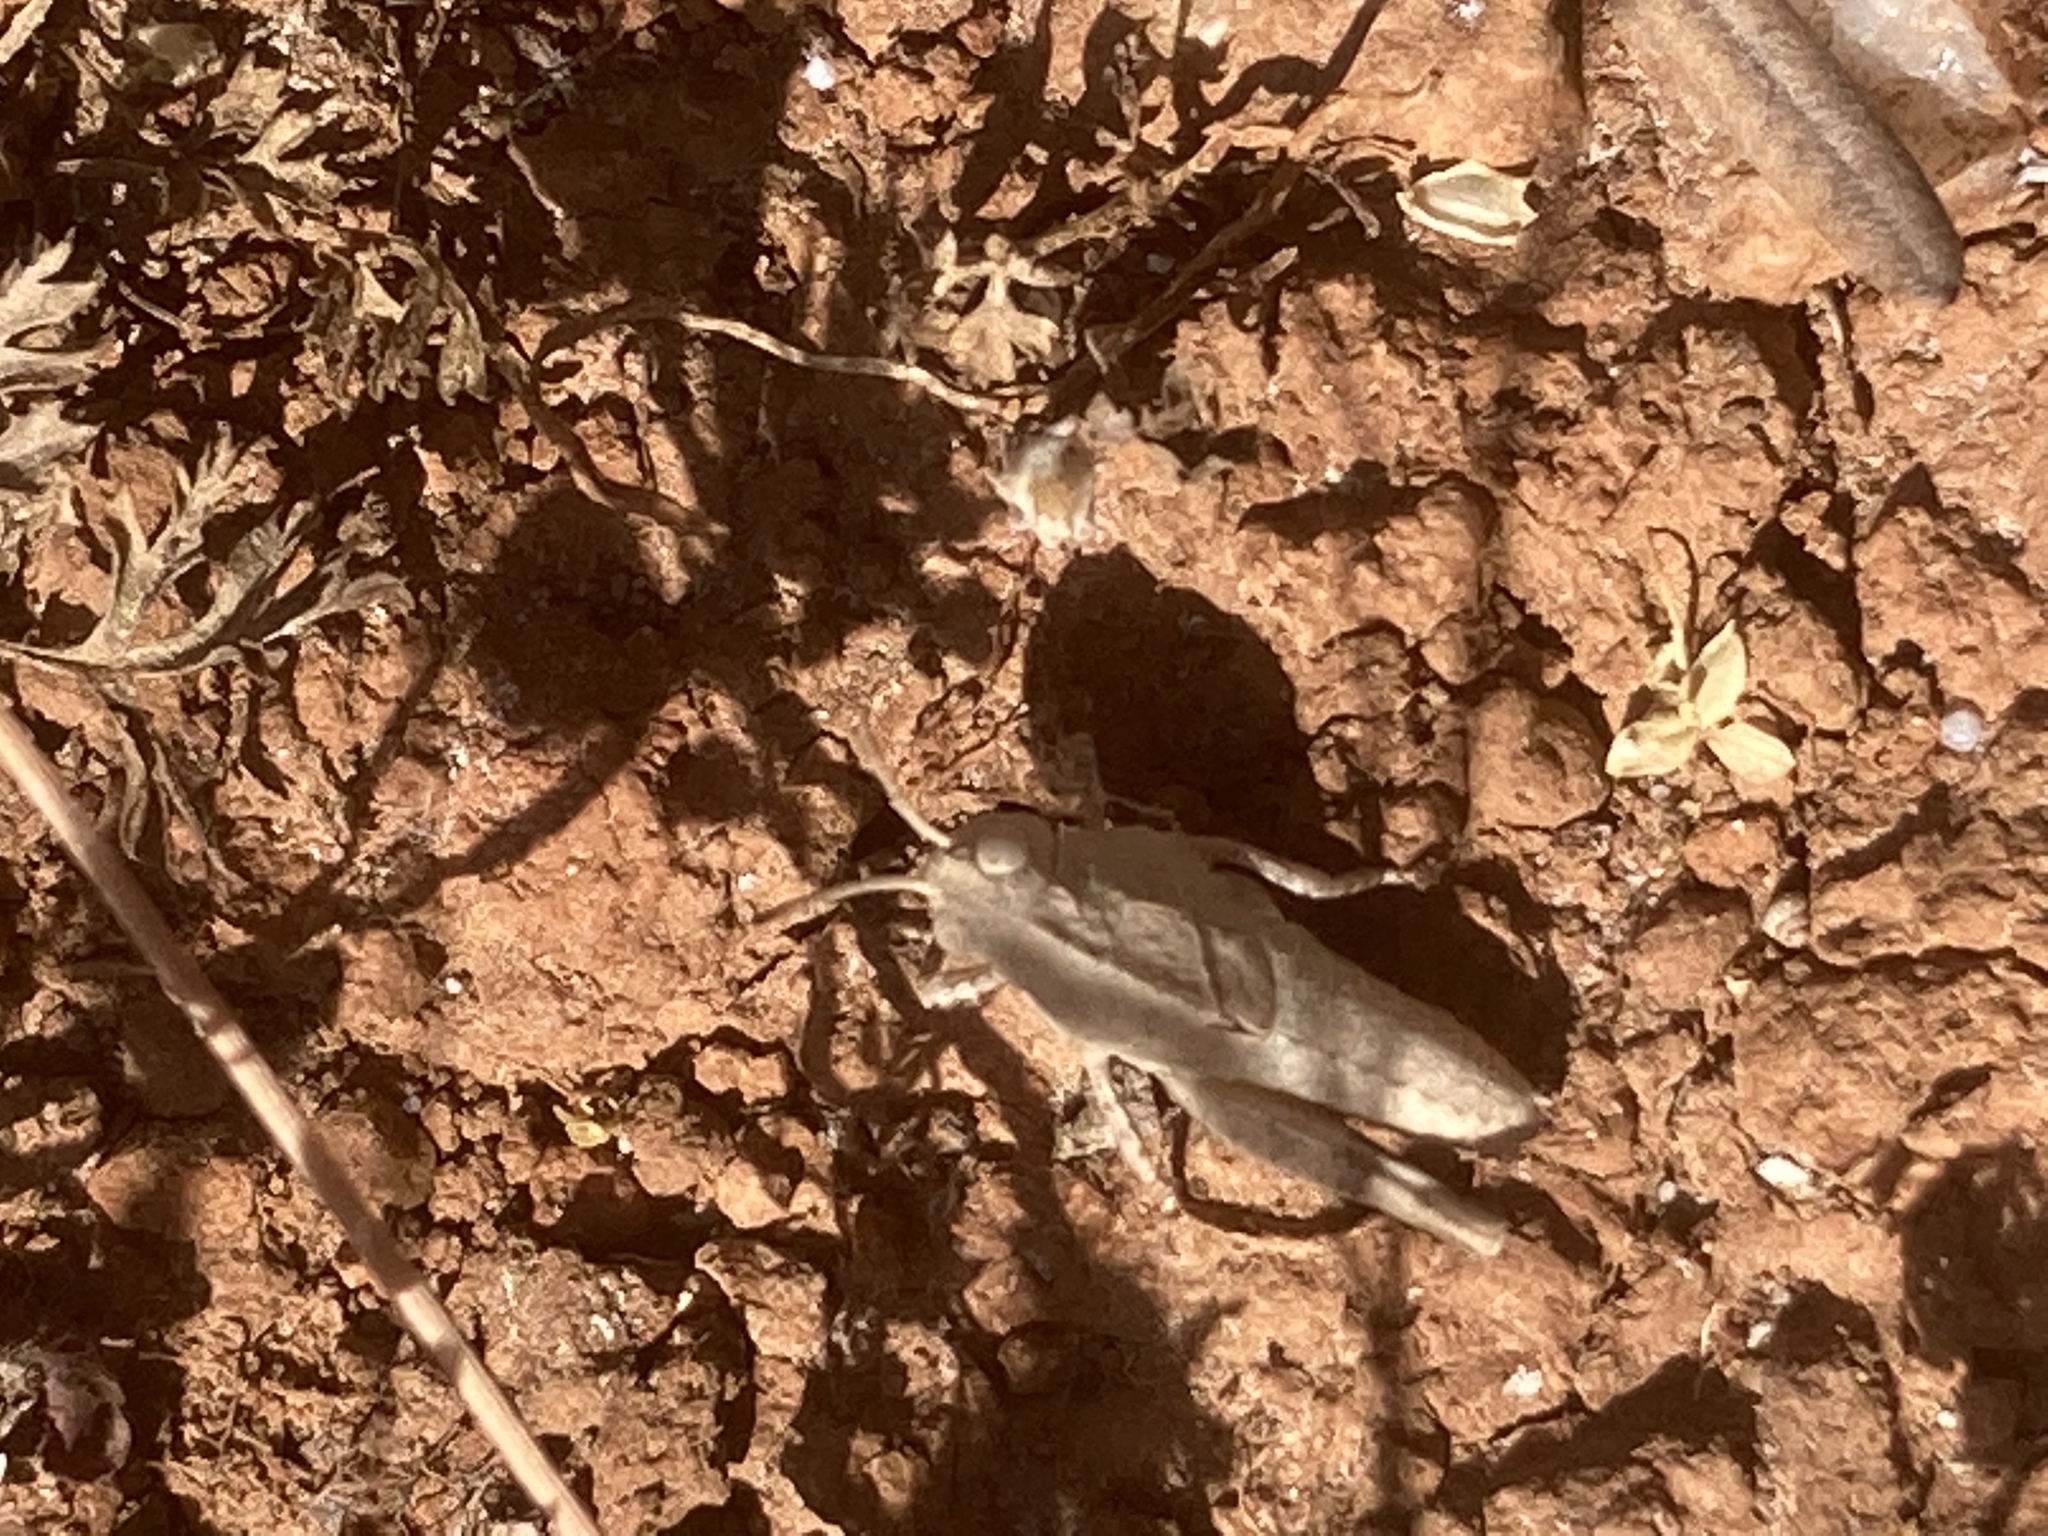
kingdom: Animalia
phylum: Arthropoda
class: Insecta
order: Orthoptera
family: Acrididae
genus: Oedipoda
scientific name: Oedipoda
